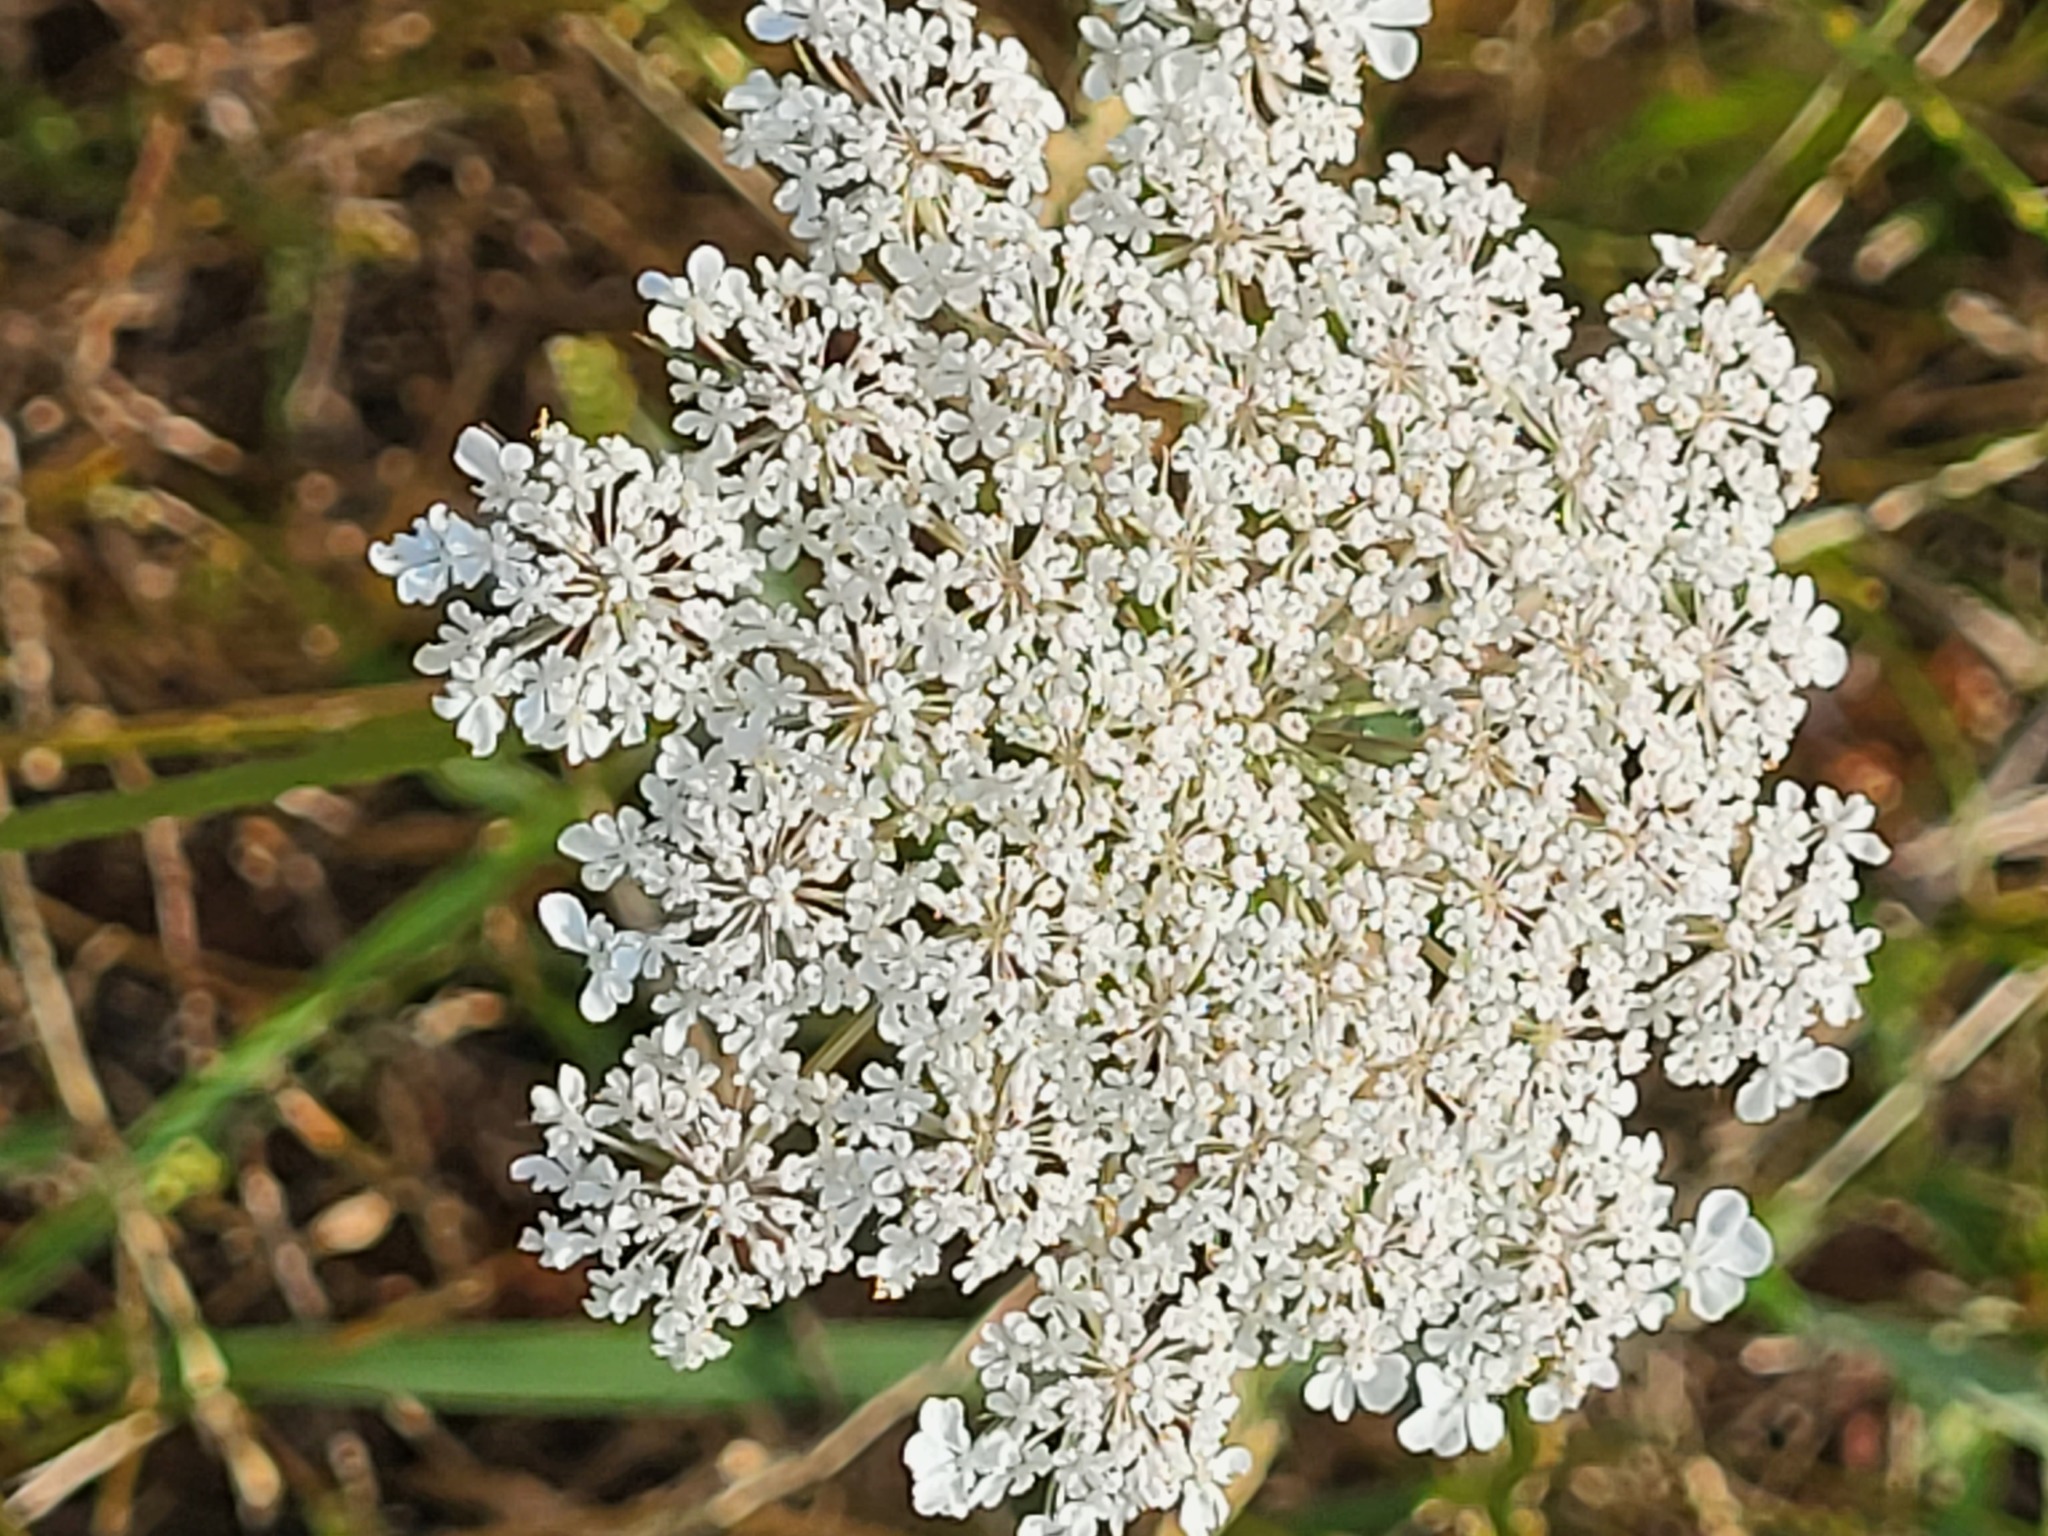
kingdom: Plantae
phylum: Tracheophyta
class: Magnoliopsida
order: Apiales
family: Apiaceae
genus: Daucus
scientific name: Daucus carota
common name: Wild carrot
